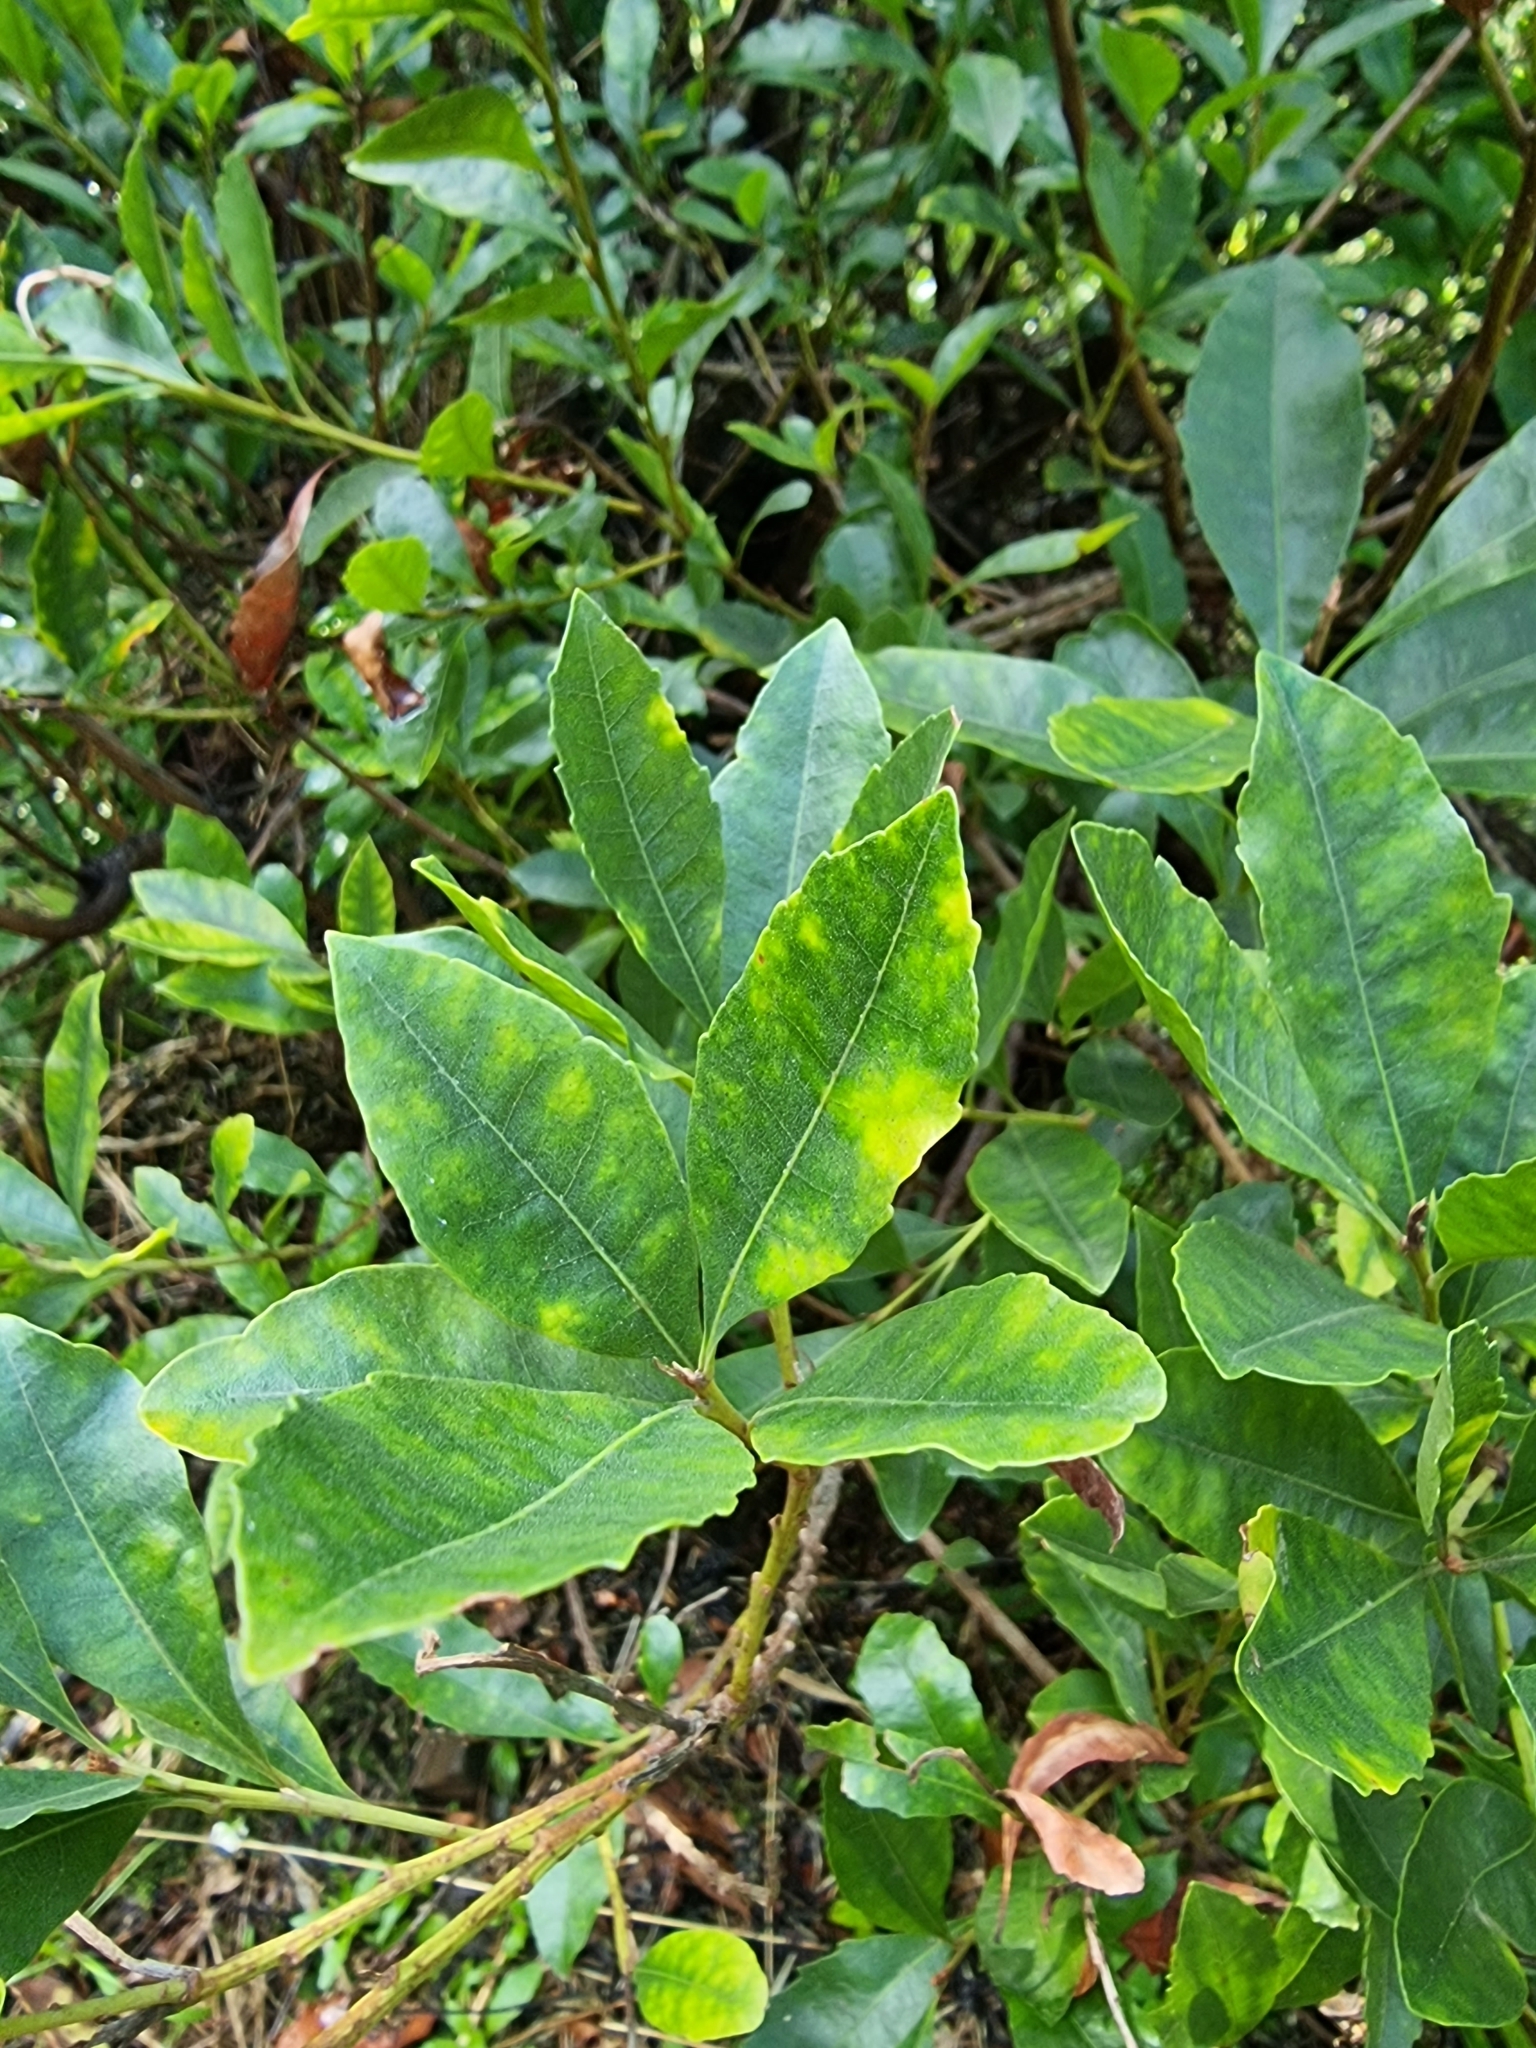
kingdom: Plantae
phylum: Tracheophyta
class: Magnoliopsida
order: Fagales
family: Myricaceae
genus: Morella
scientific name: Morella faya
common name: Firetree
